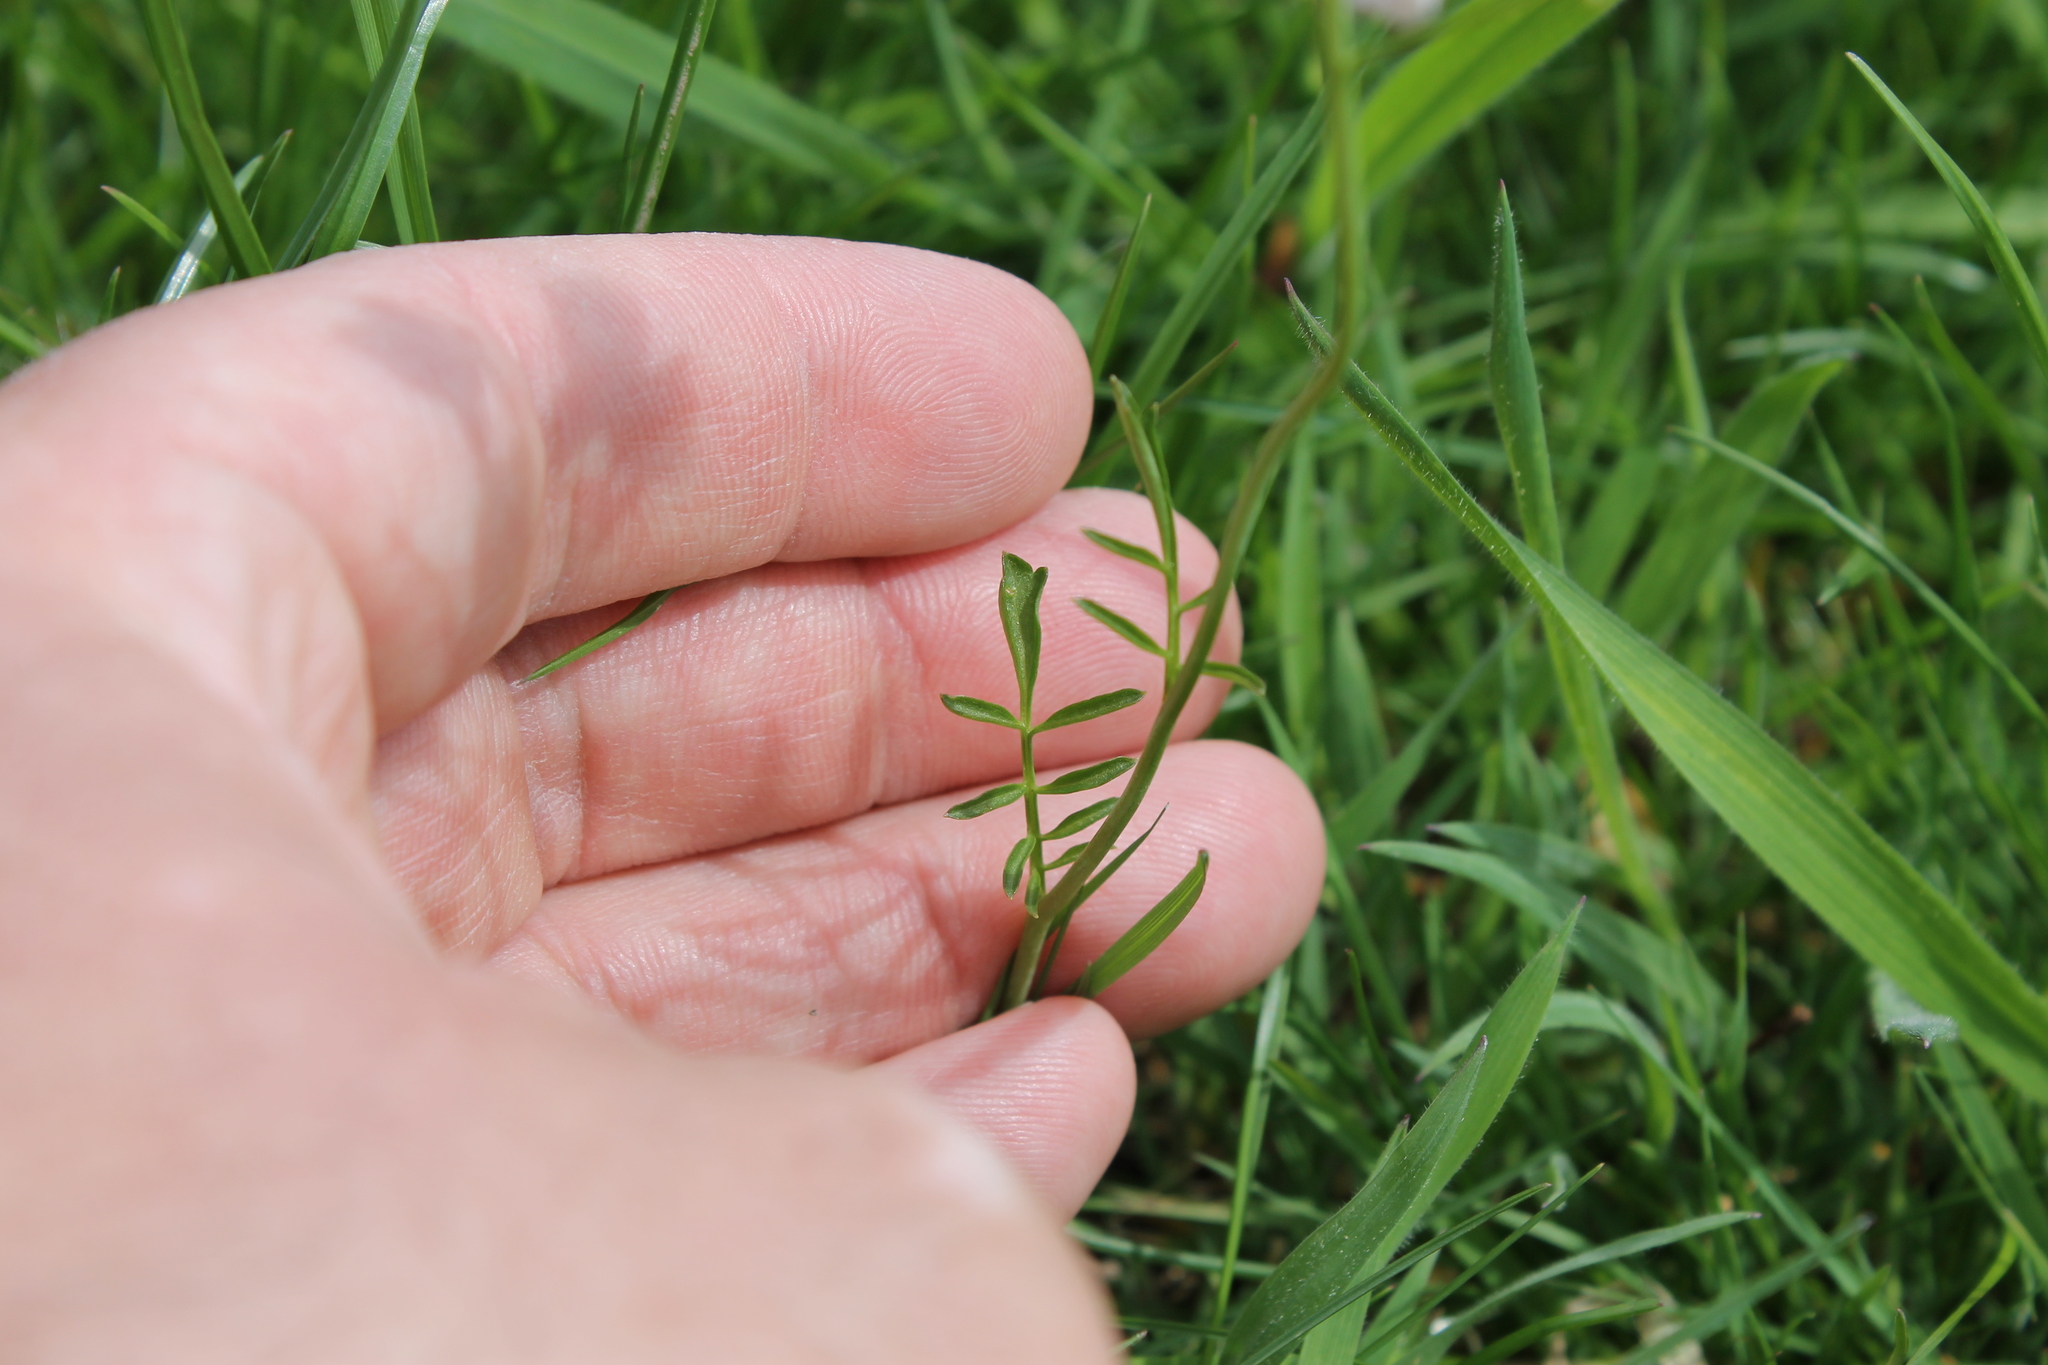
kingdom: Plantae
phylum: Tracheophyta
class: Magnoliopsida
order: Brassicales
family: Brassicaceae
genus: Cardamine
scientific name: Cardamine pratensis
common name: Cuckoo flower
